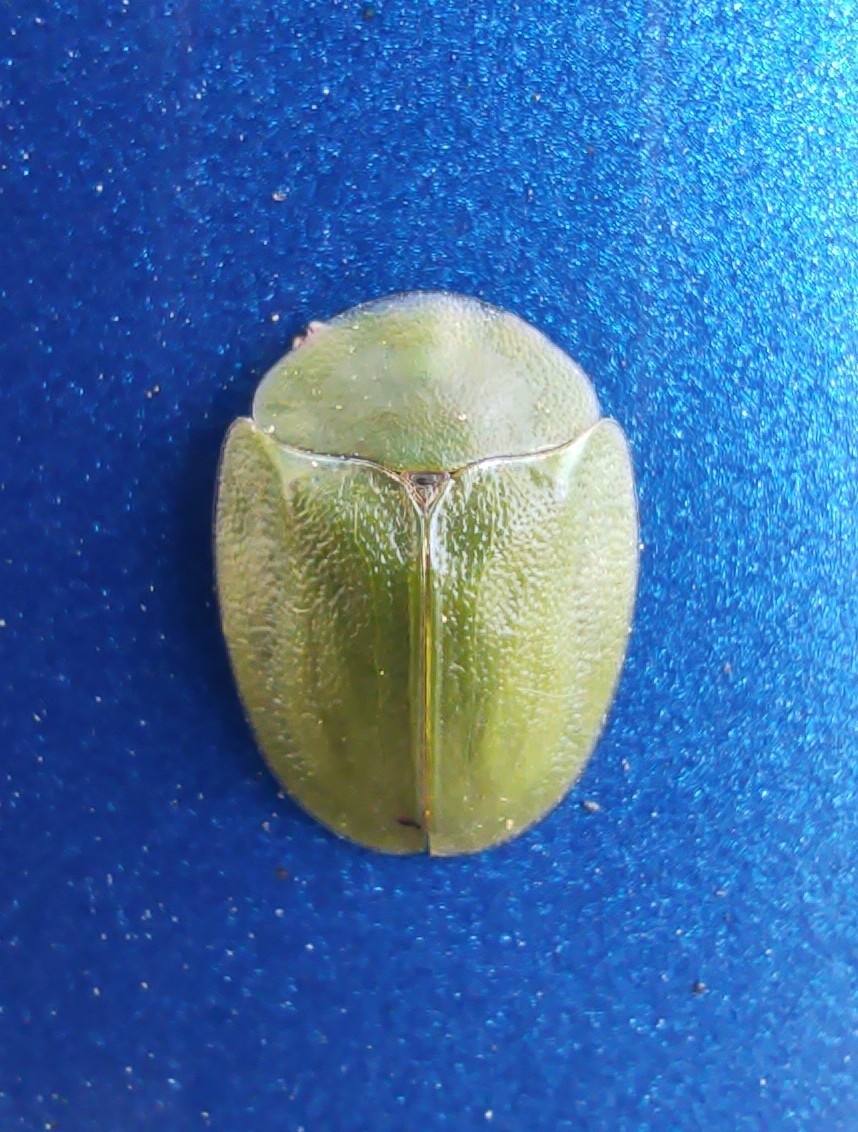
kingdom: Animalia
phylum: Arthropoda
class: Insecta
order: Coleoptera
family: Chrysomelidae
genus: Cassida
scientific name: Cassida viridis
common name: Green tortoise beetle
